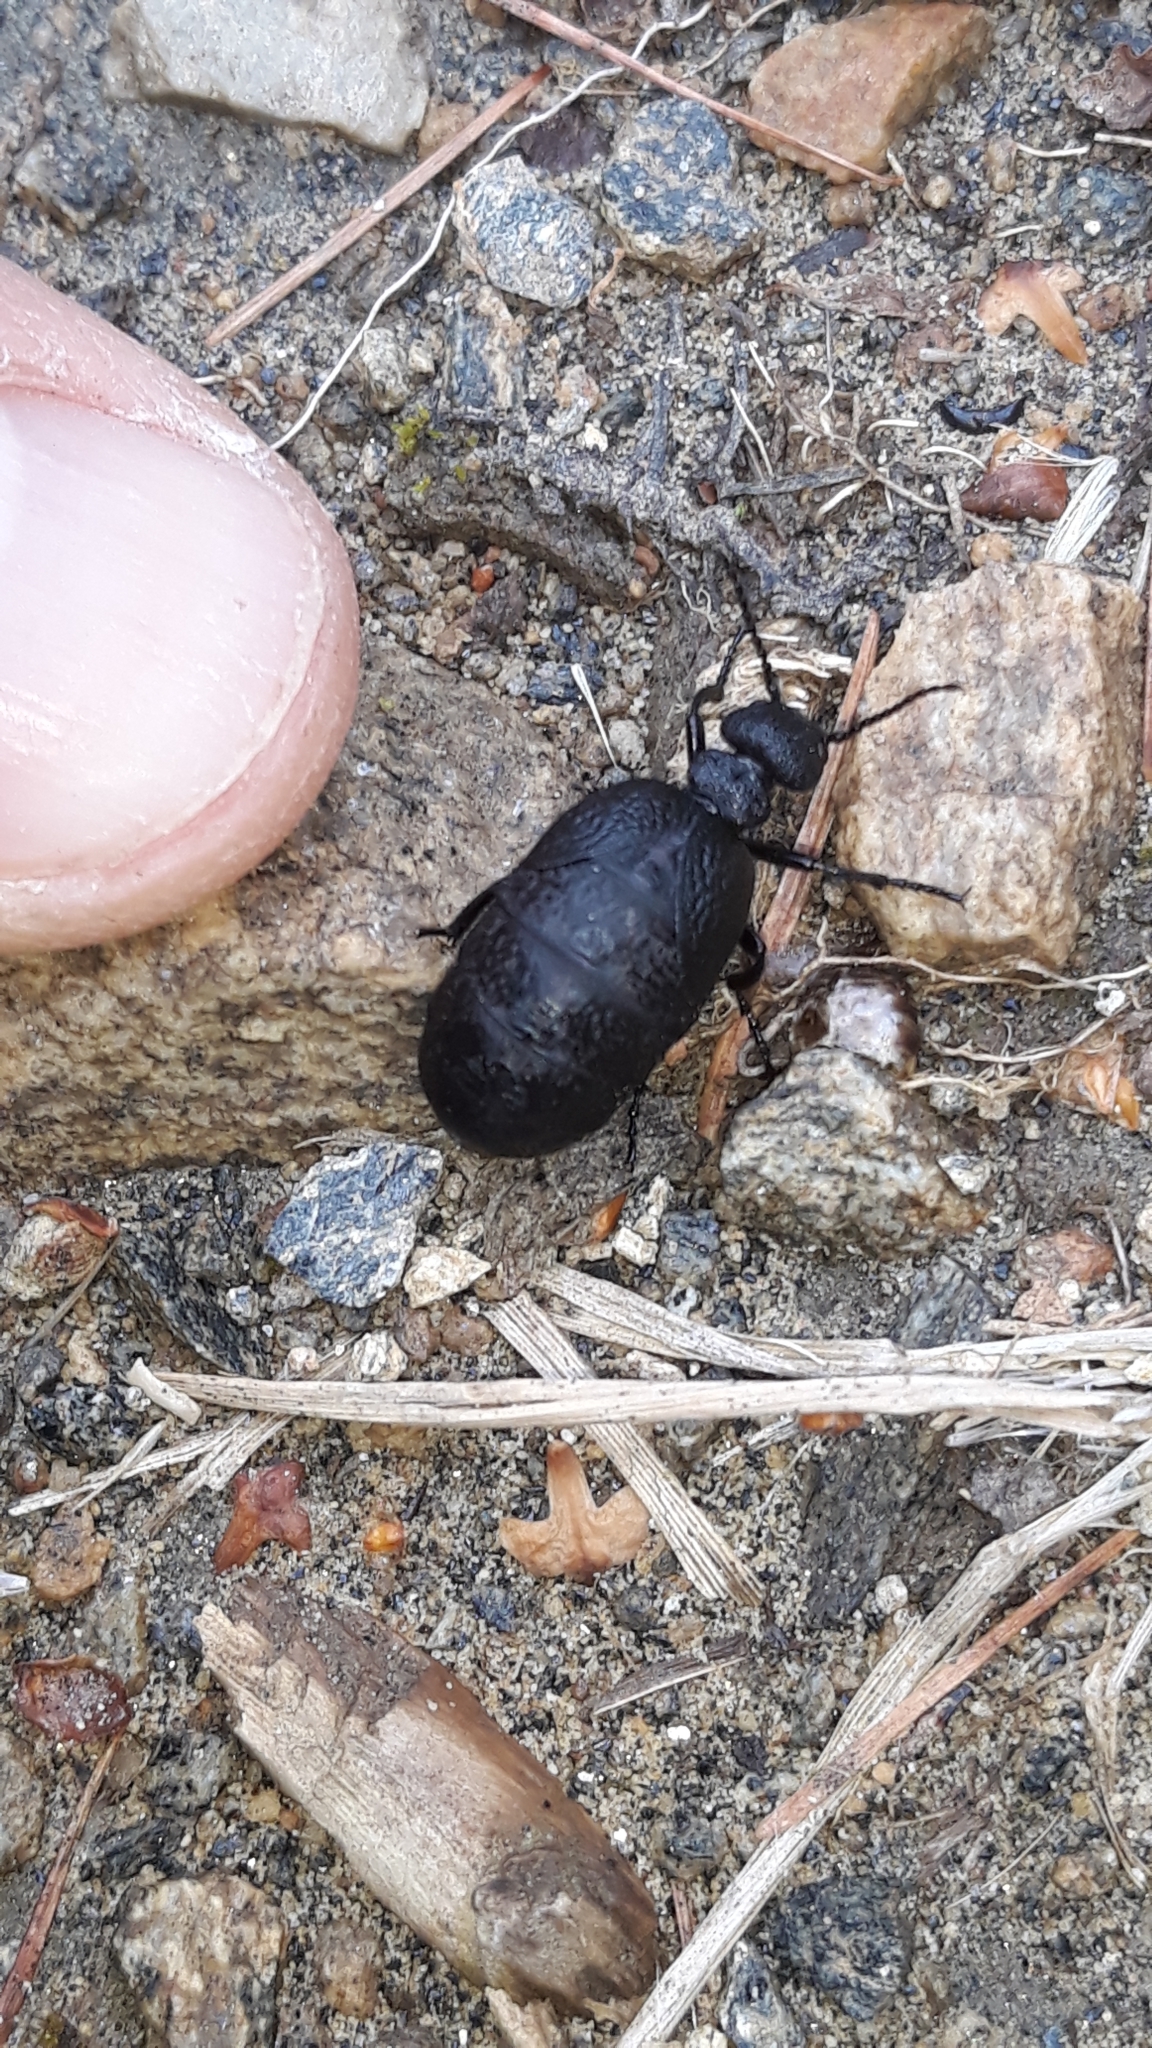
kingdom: Animalia
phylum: Arthropoda
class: Insecta
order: Coleoptera
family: Meloidae
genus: Meloe
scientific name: Meloe rugosus
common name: Rugged oil-beetle
